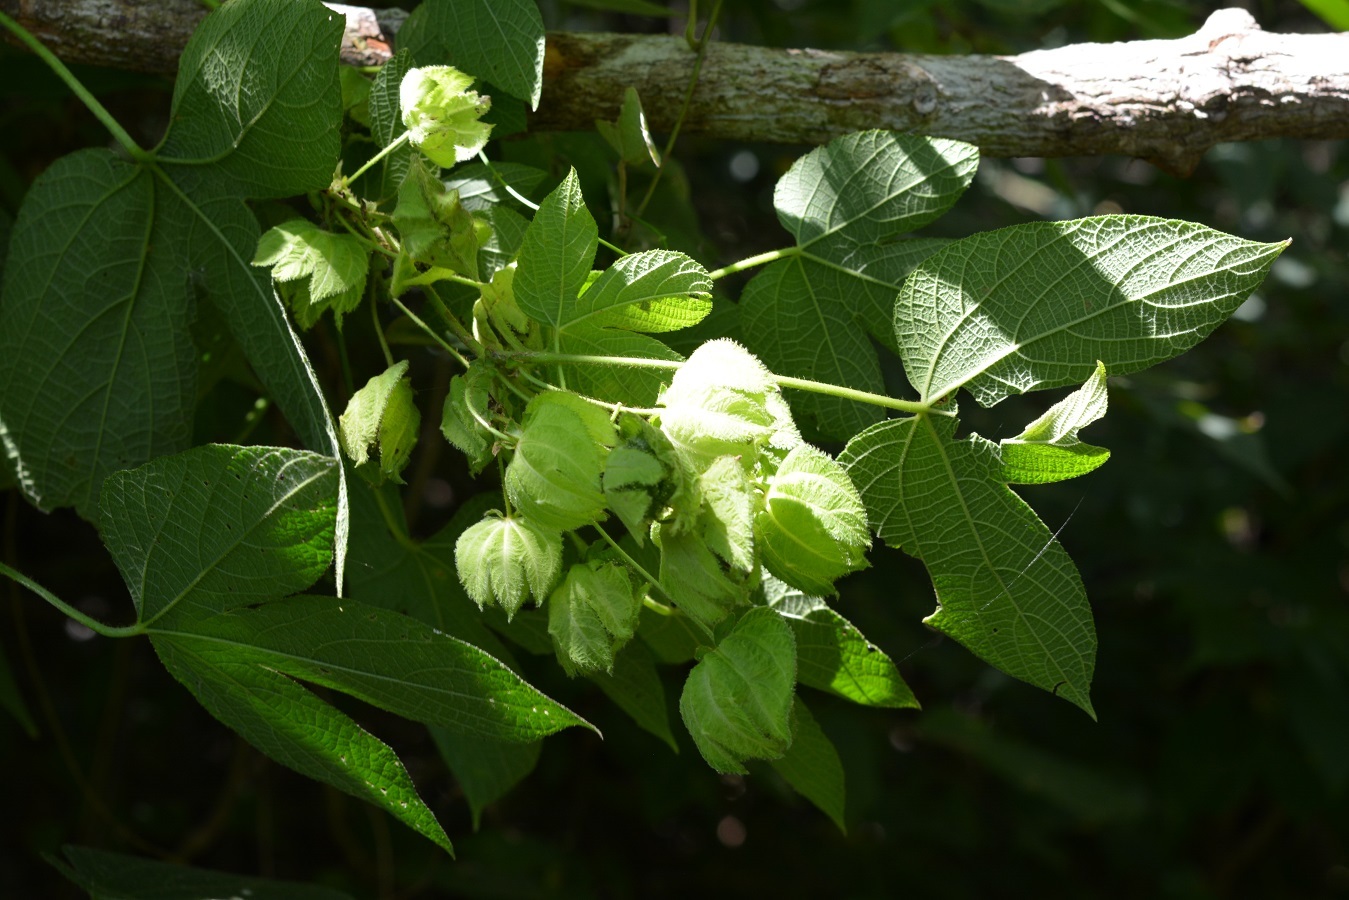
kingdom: Plantae
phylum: Tracheophyta
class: Magnoliopsida
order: Malpighiales
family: Euphorbiaceae
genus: Dalechampia
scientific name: Dalechampia scandens
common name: Spurgecreeper
